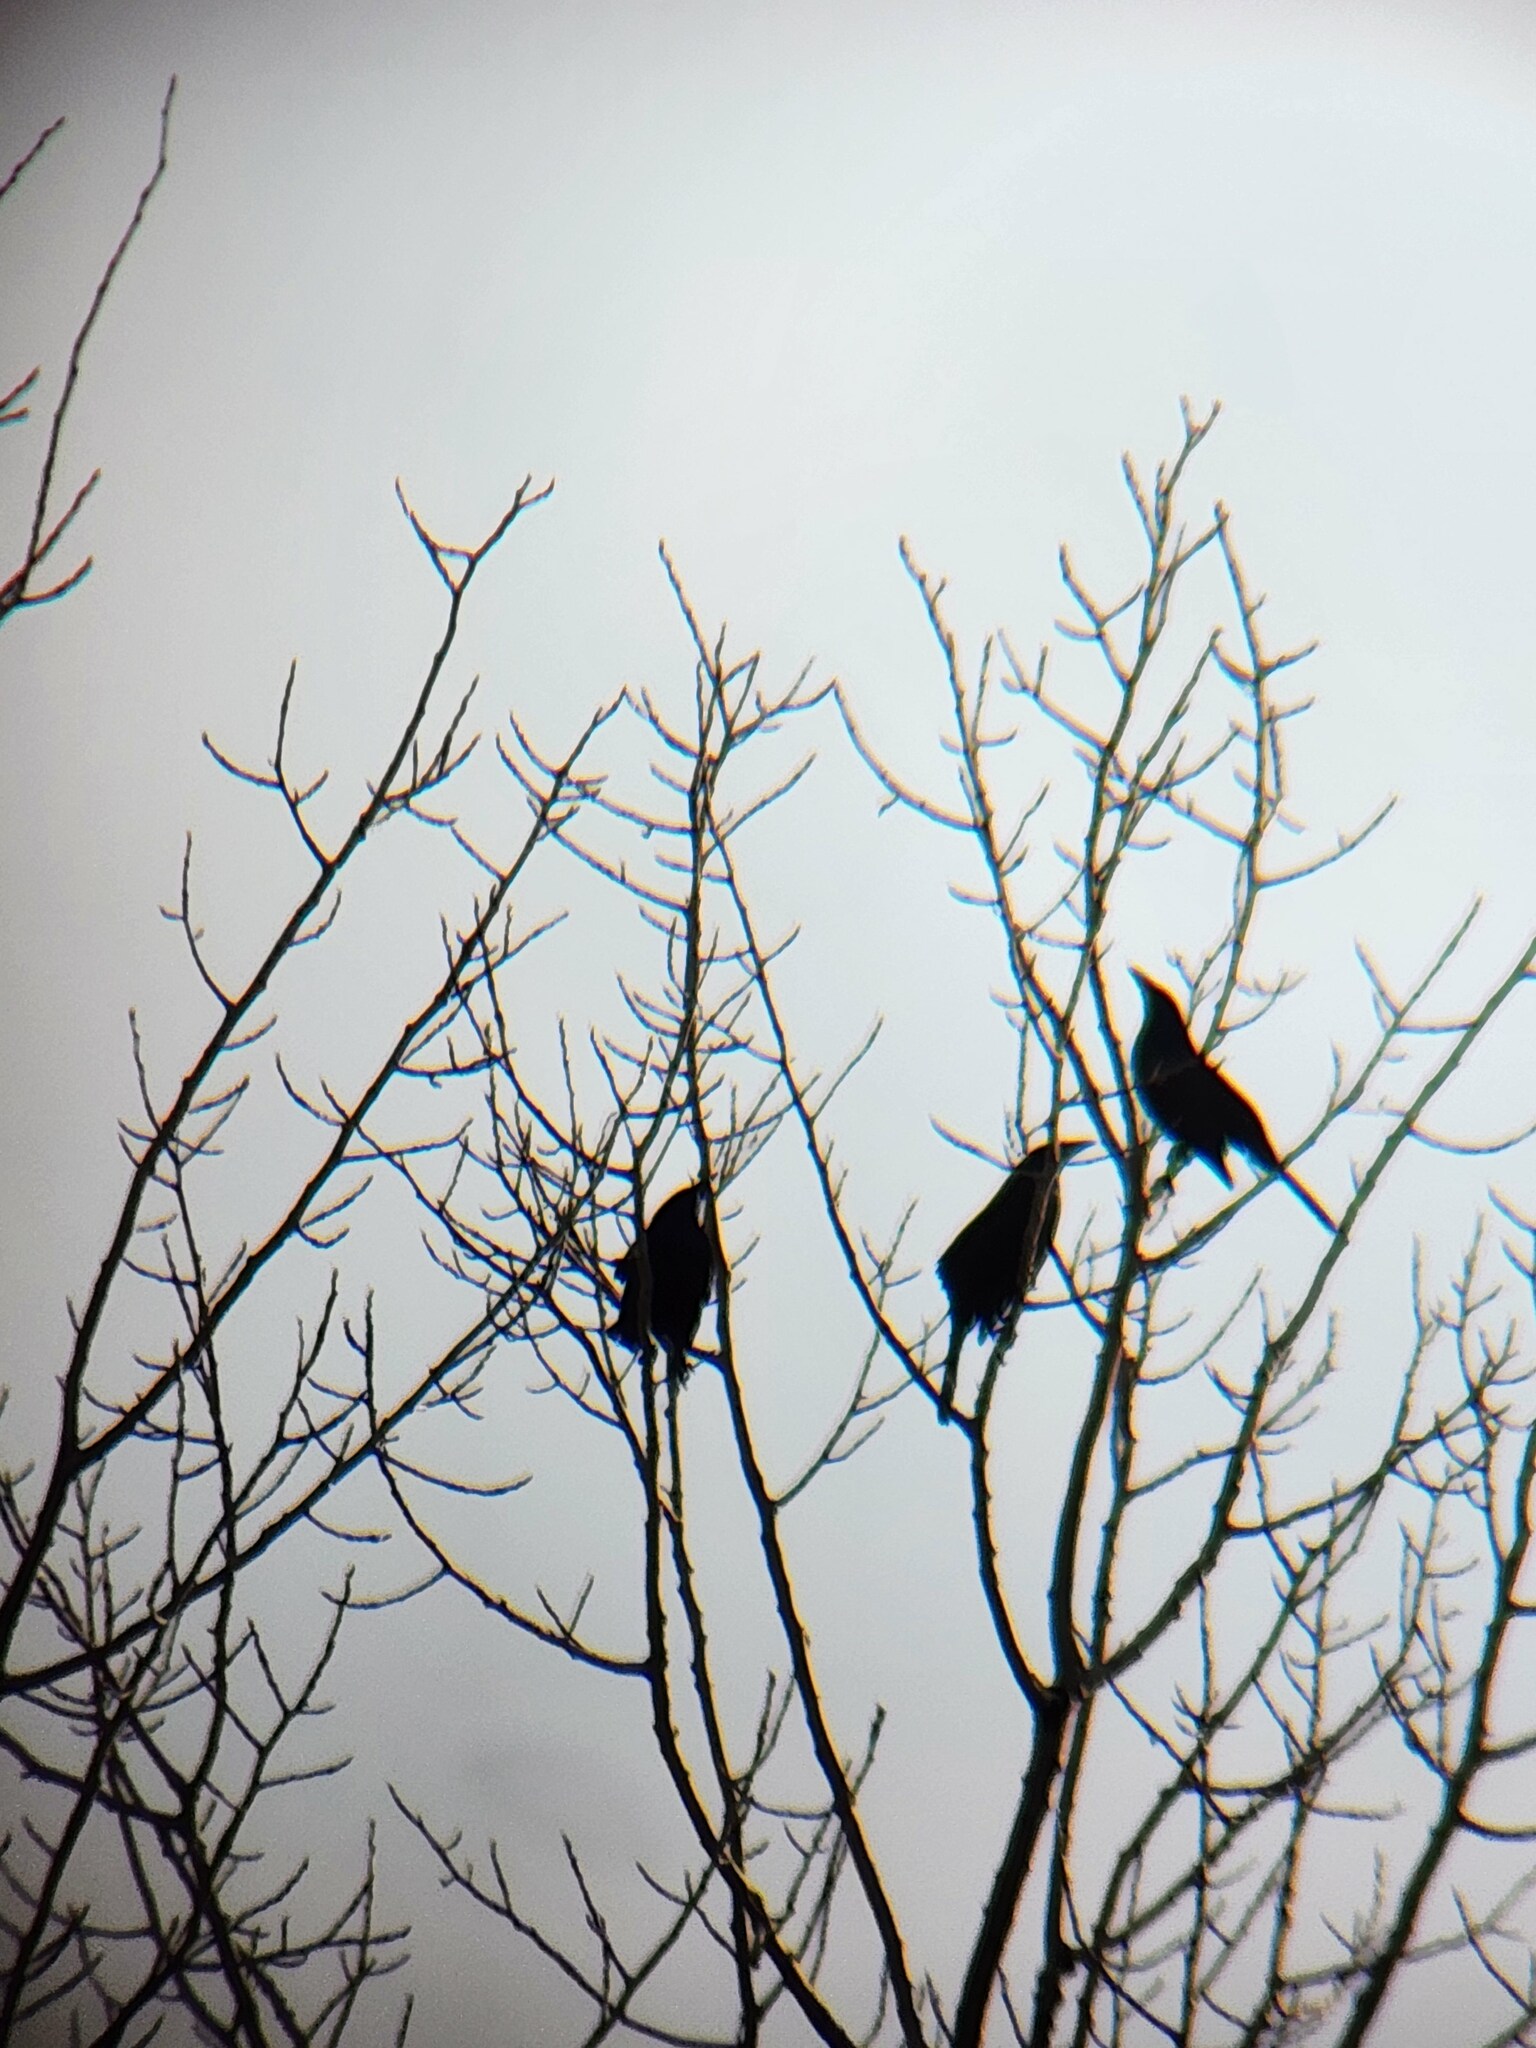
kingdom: Animalia
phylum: Chordata
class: Aves
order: Passeriformes
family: Icteridae
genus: Quiscalus
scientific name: Quiscalus quiscula
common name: Common grackle
